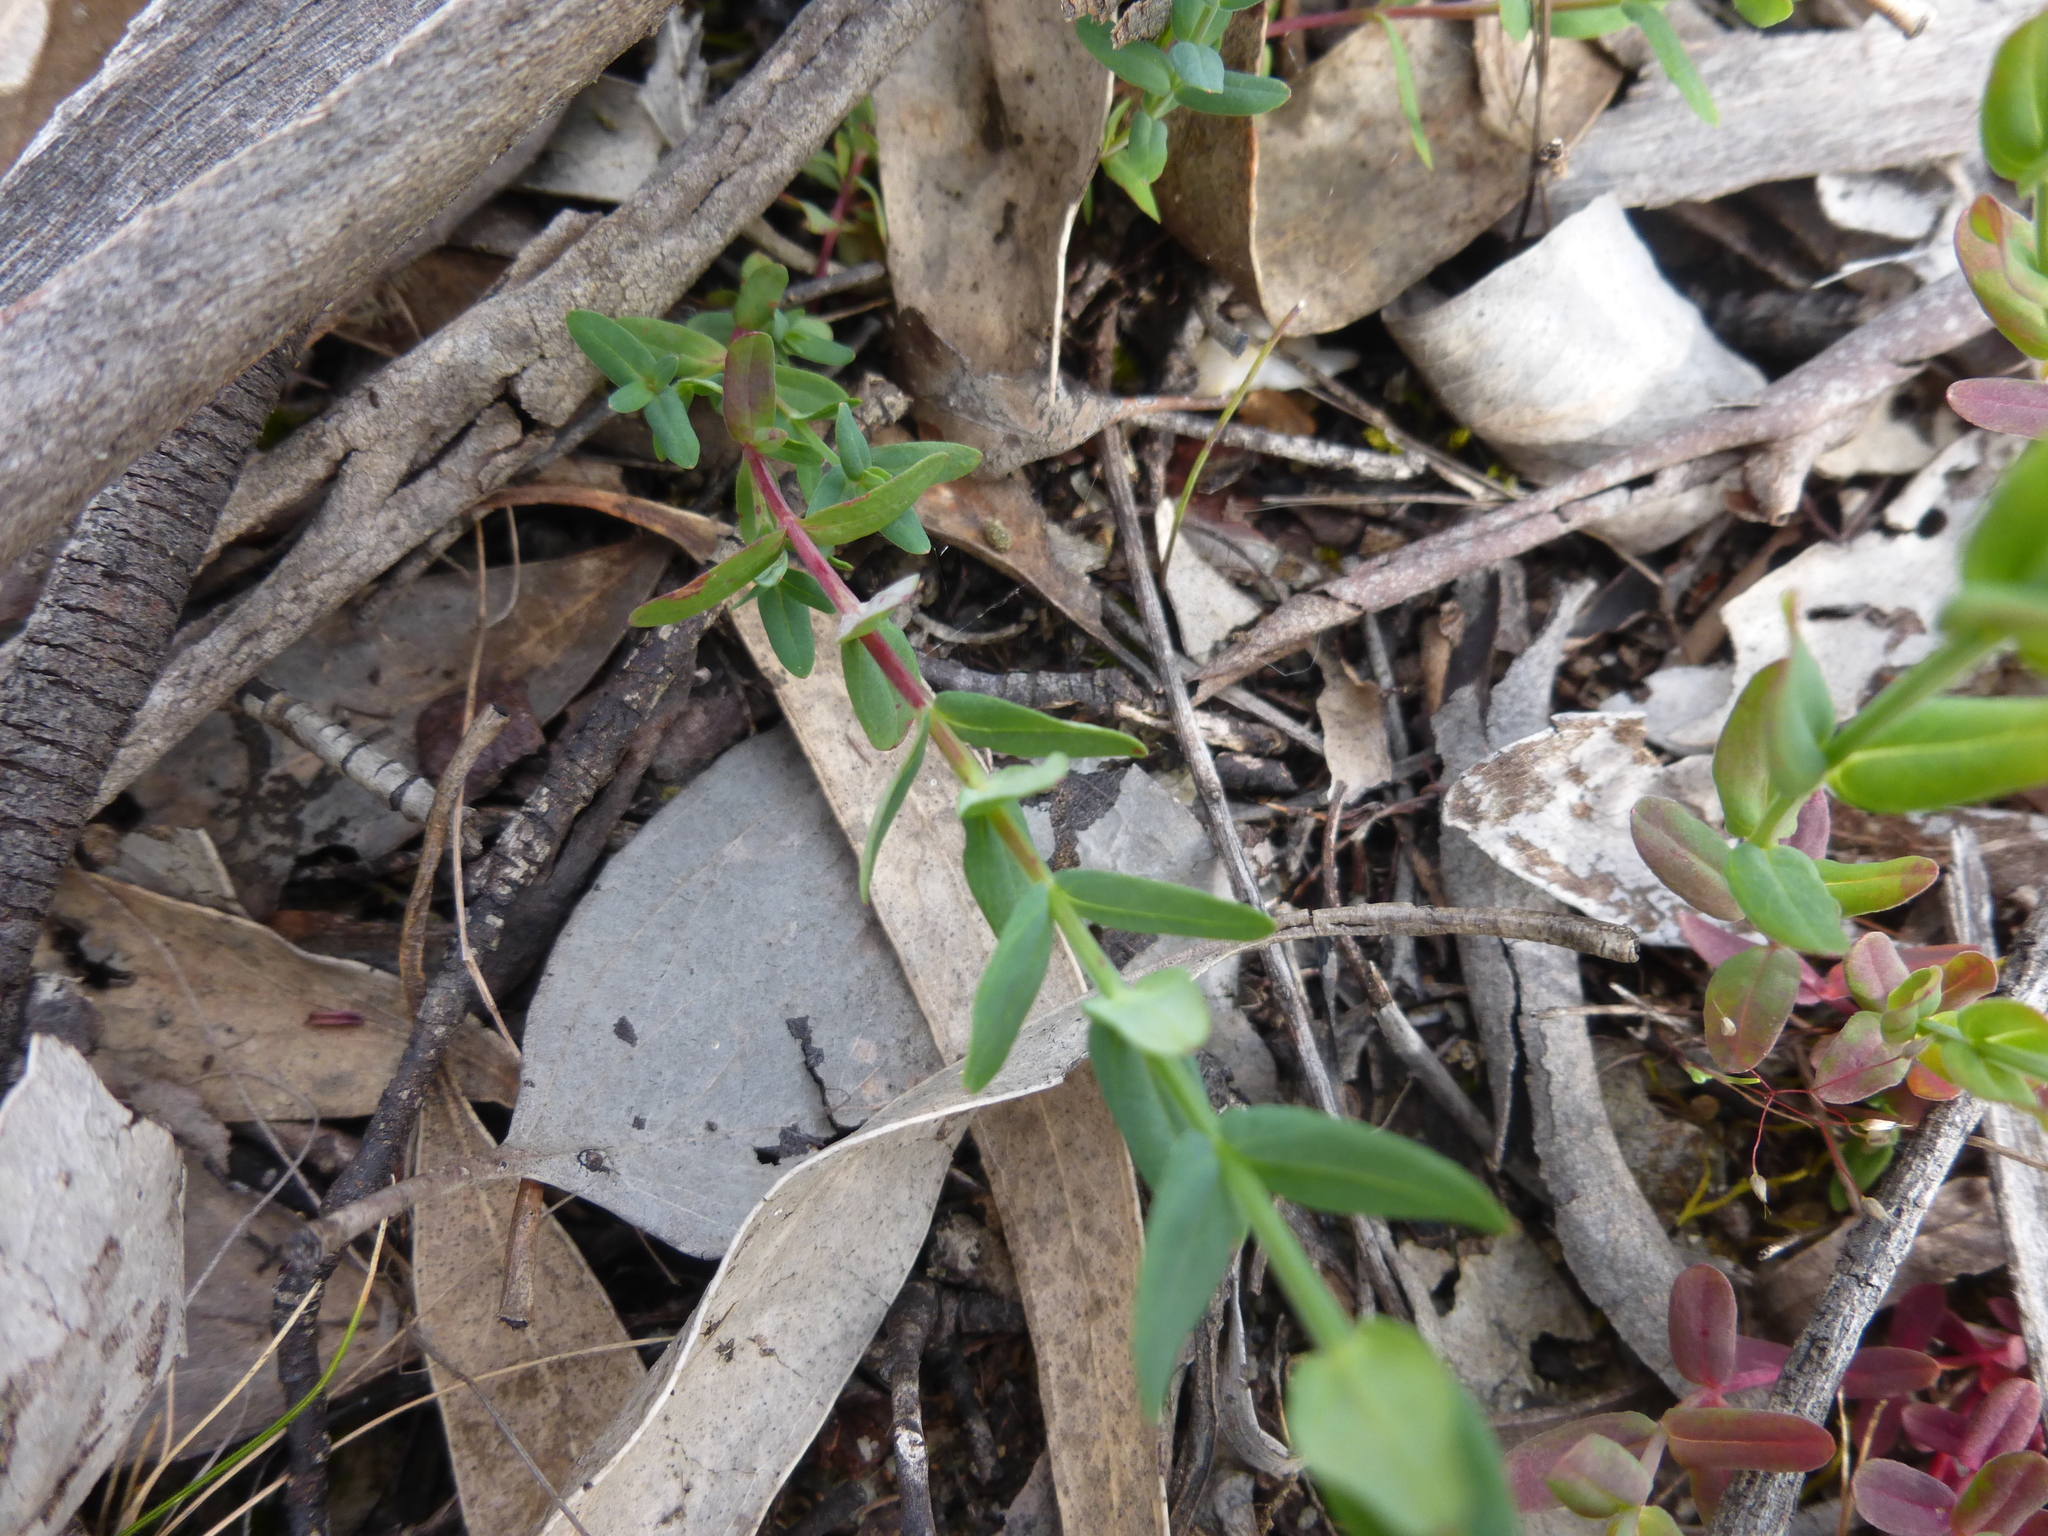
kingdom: Plantae
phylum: Tracheophyta
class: Magnoliopsida
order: Malpighiales
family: Hypericaceae
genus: Hypericum
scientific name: Hypericum gramineum
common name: Grassy st. johnswort
